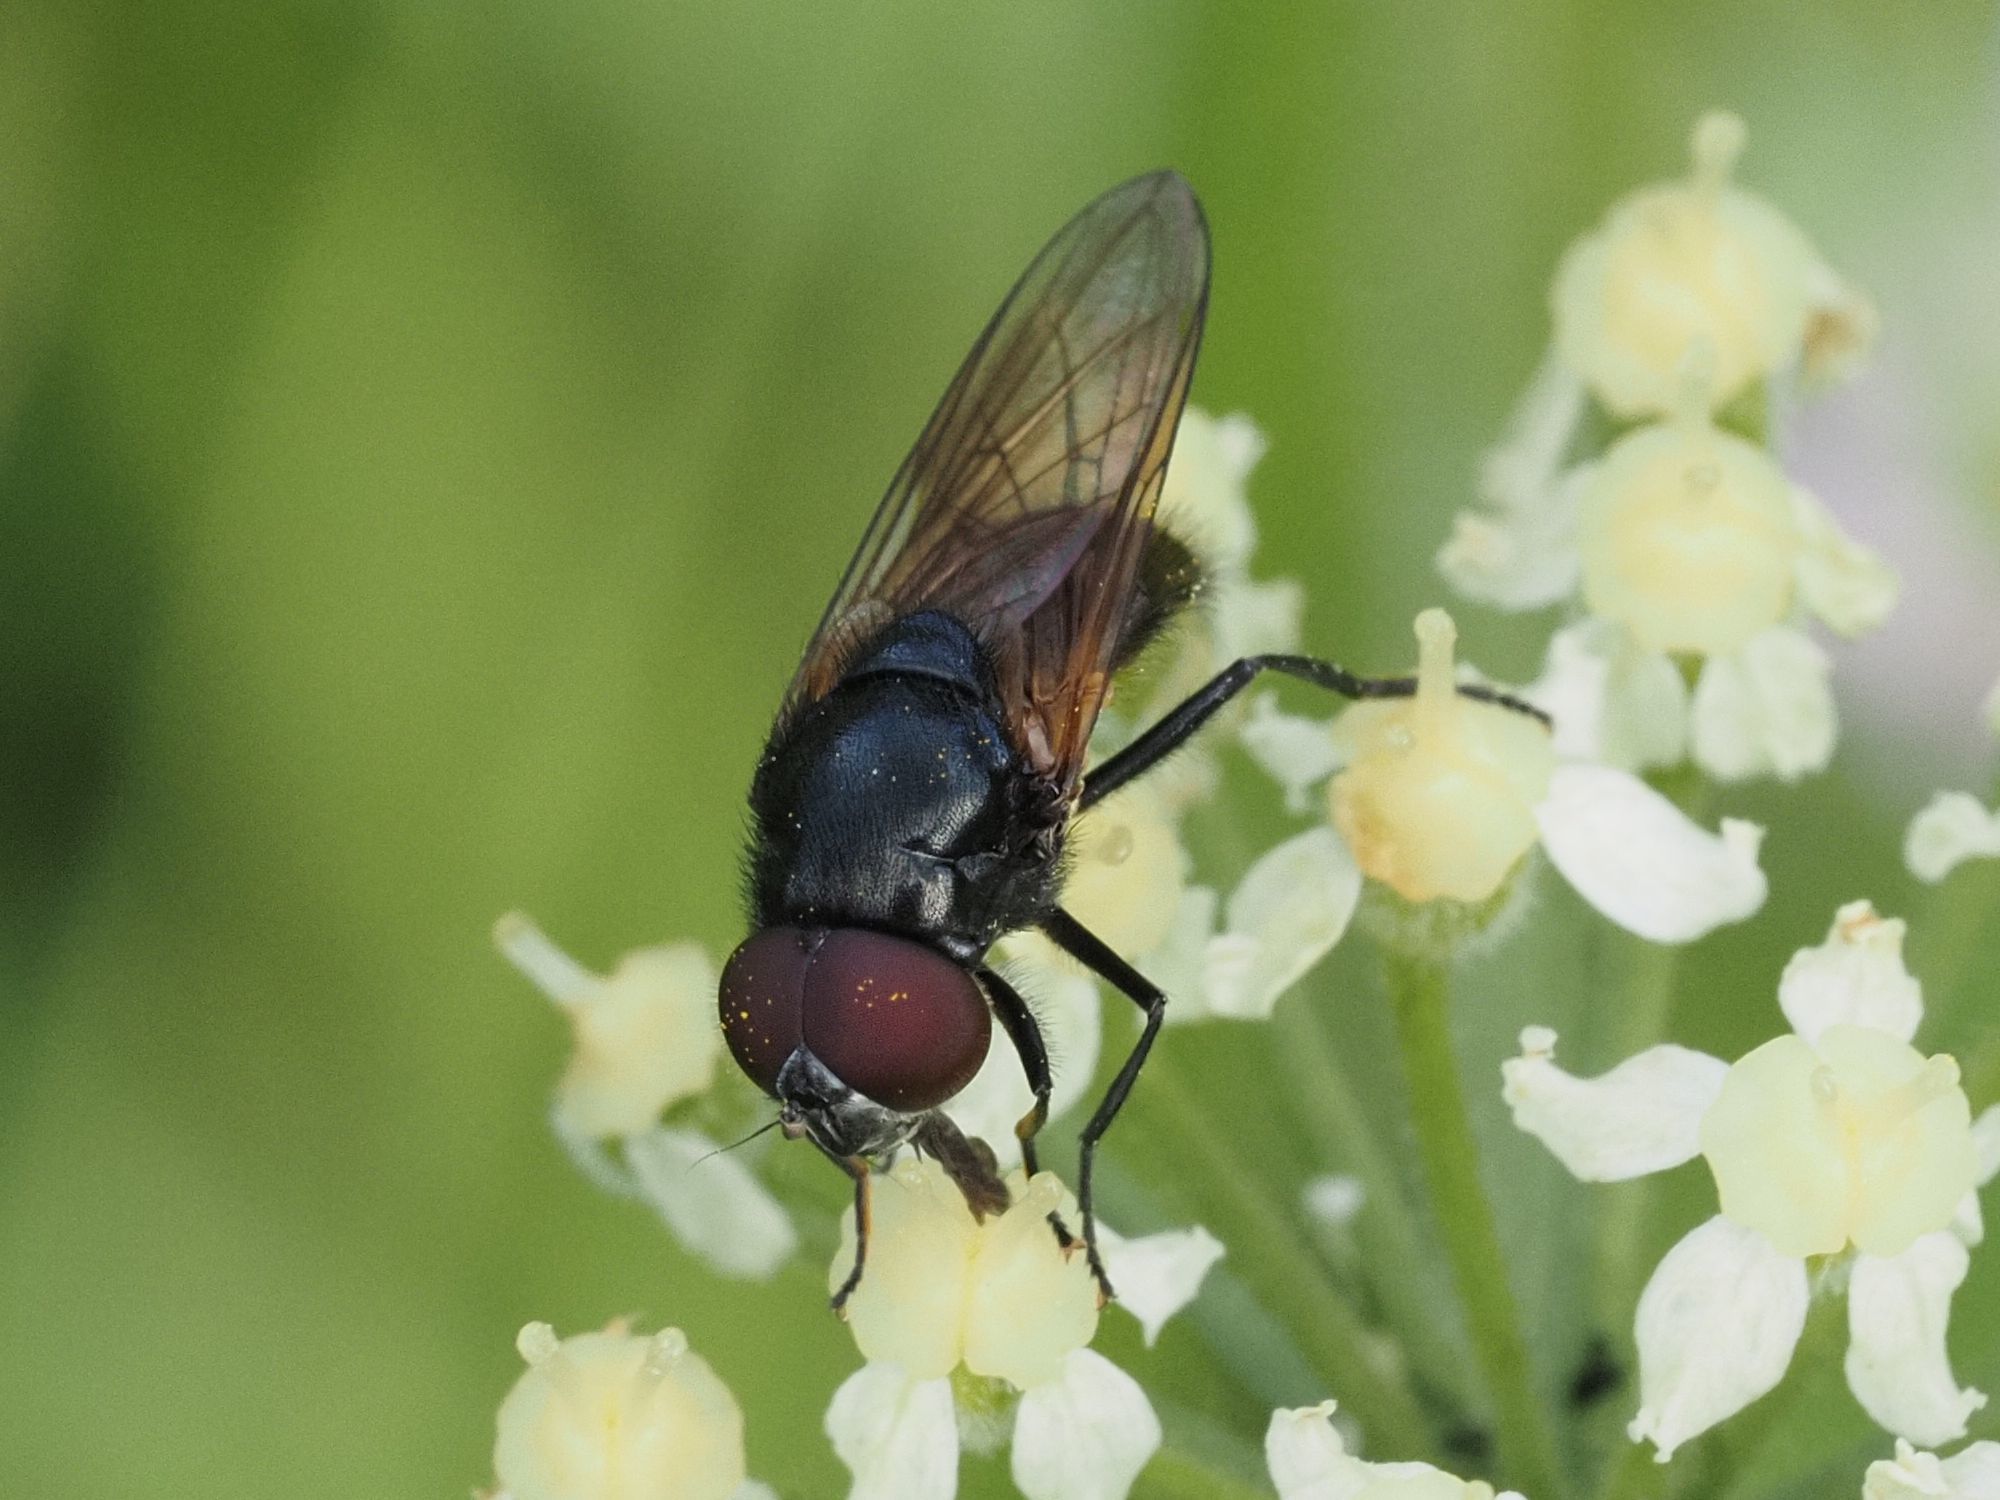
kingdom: Animalia
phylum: Arthropoda
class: Insecta
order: Diptera
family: Syrphidae
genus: Cheilosia
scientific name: Cheilosia impressa
